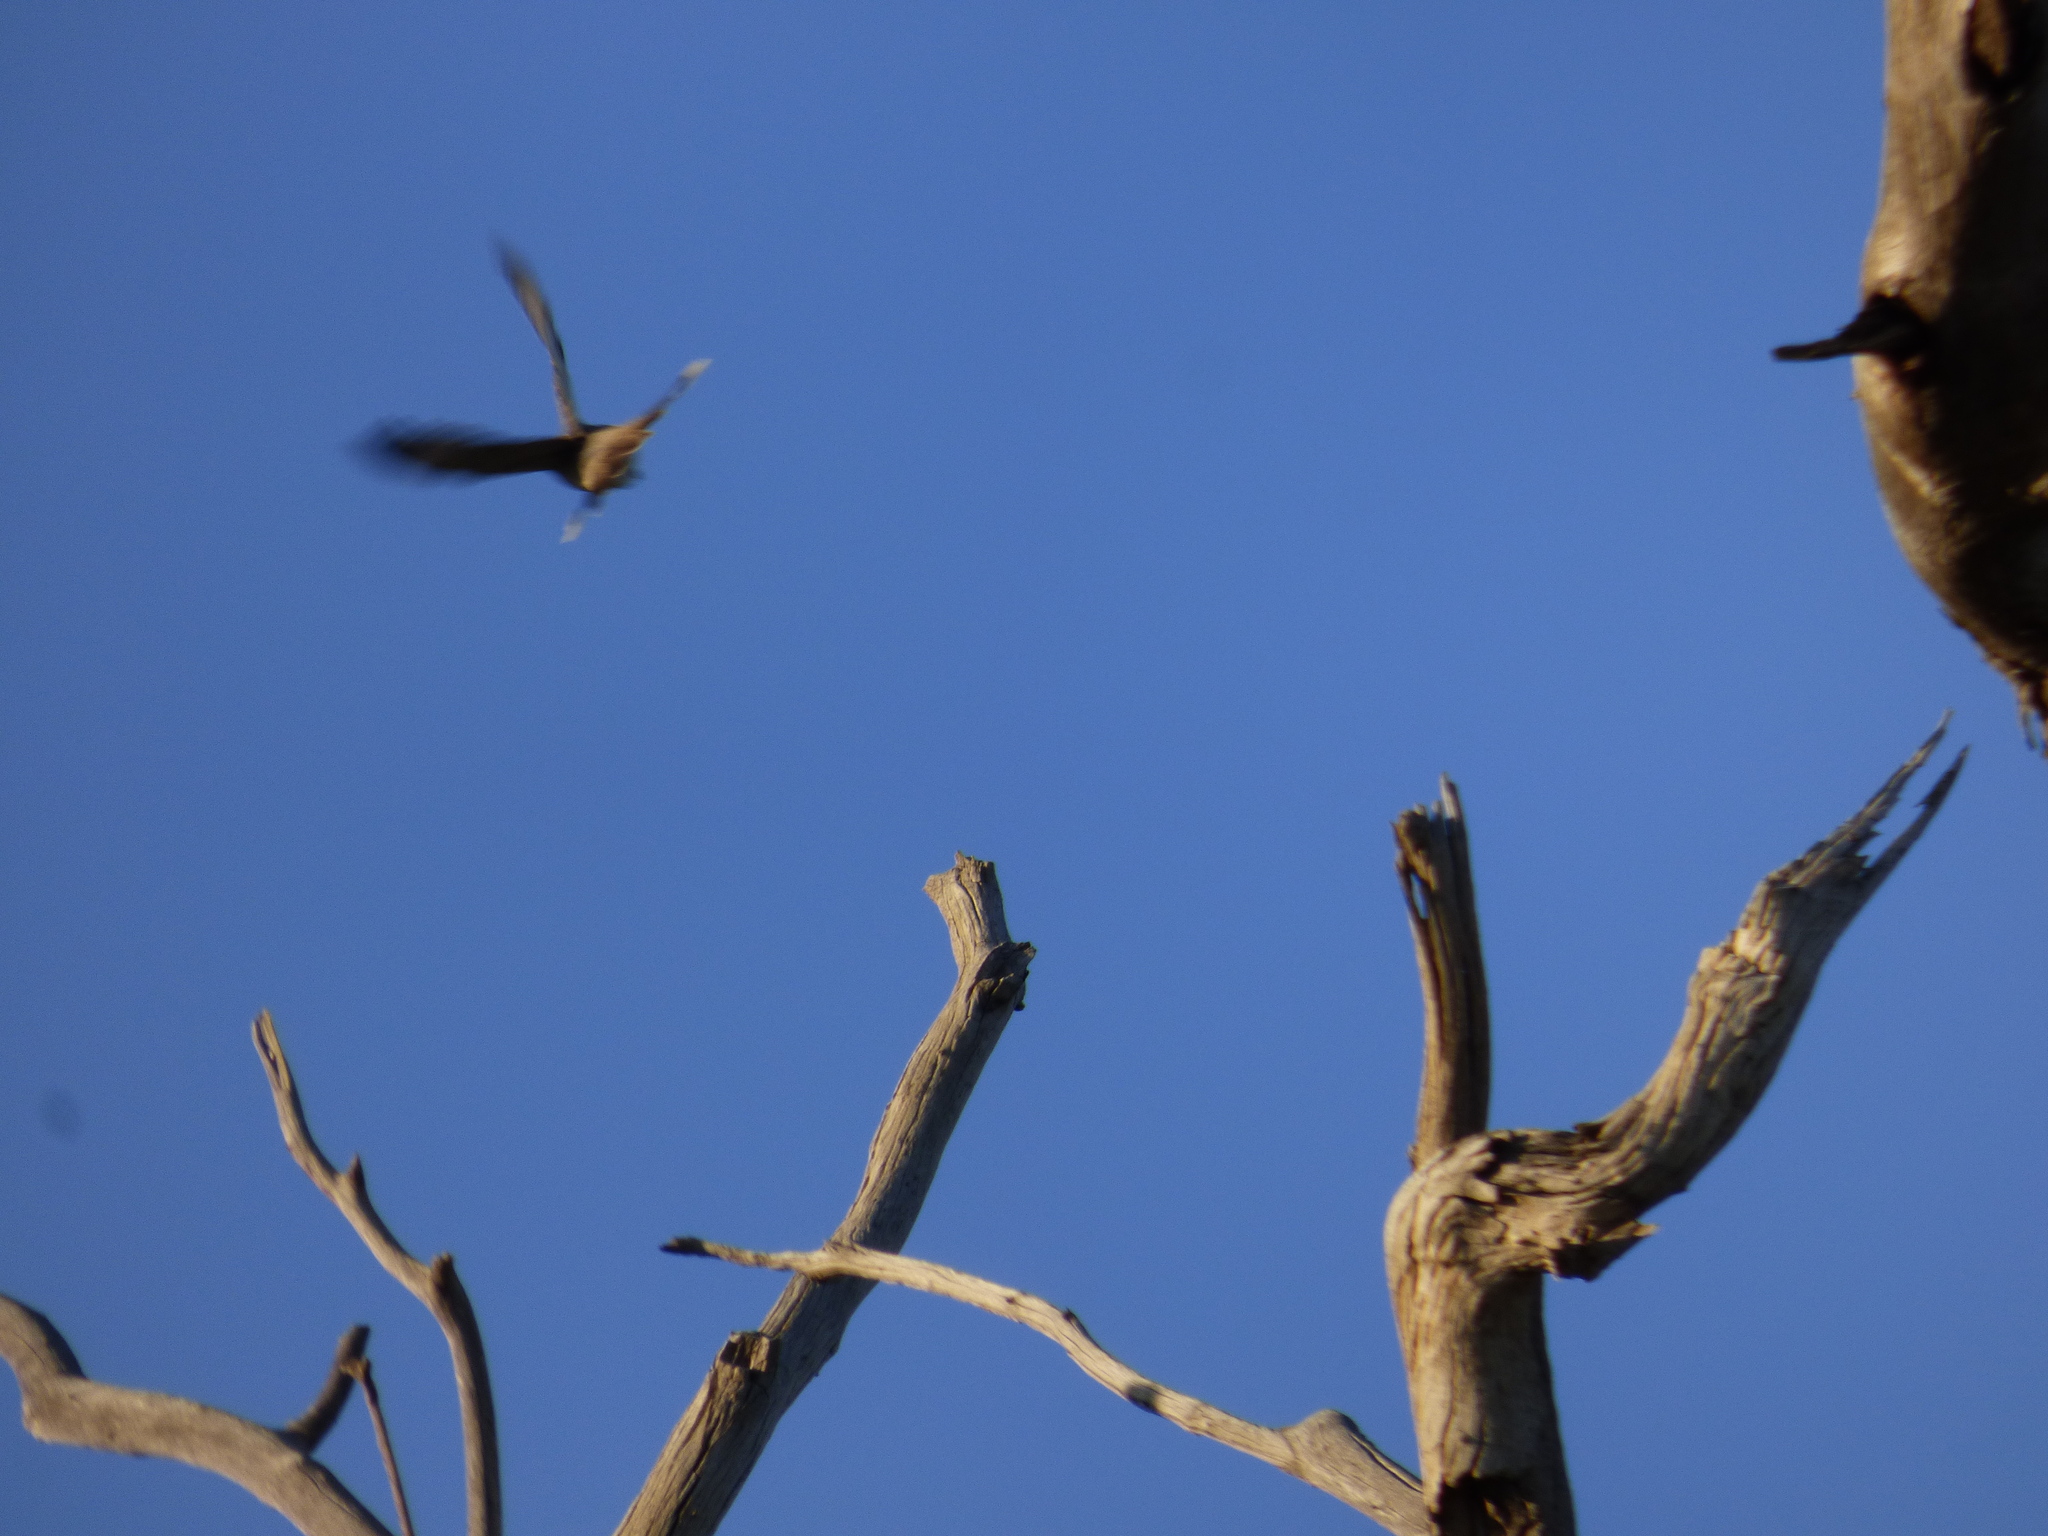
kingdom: Animalia
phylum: Chordata
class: Aves
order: Passeriformes
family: Campephagidae
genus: Lalage
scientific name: Lalage tricolor
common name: White-winged triller
